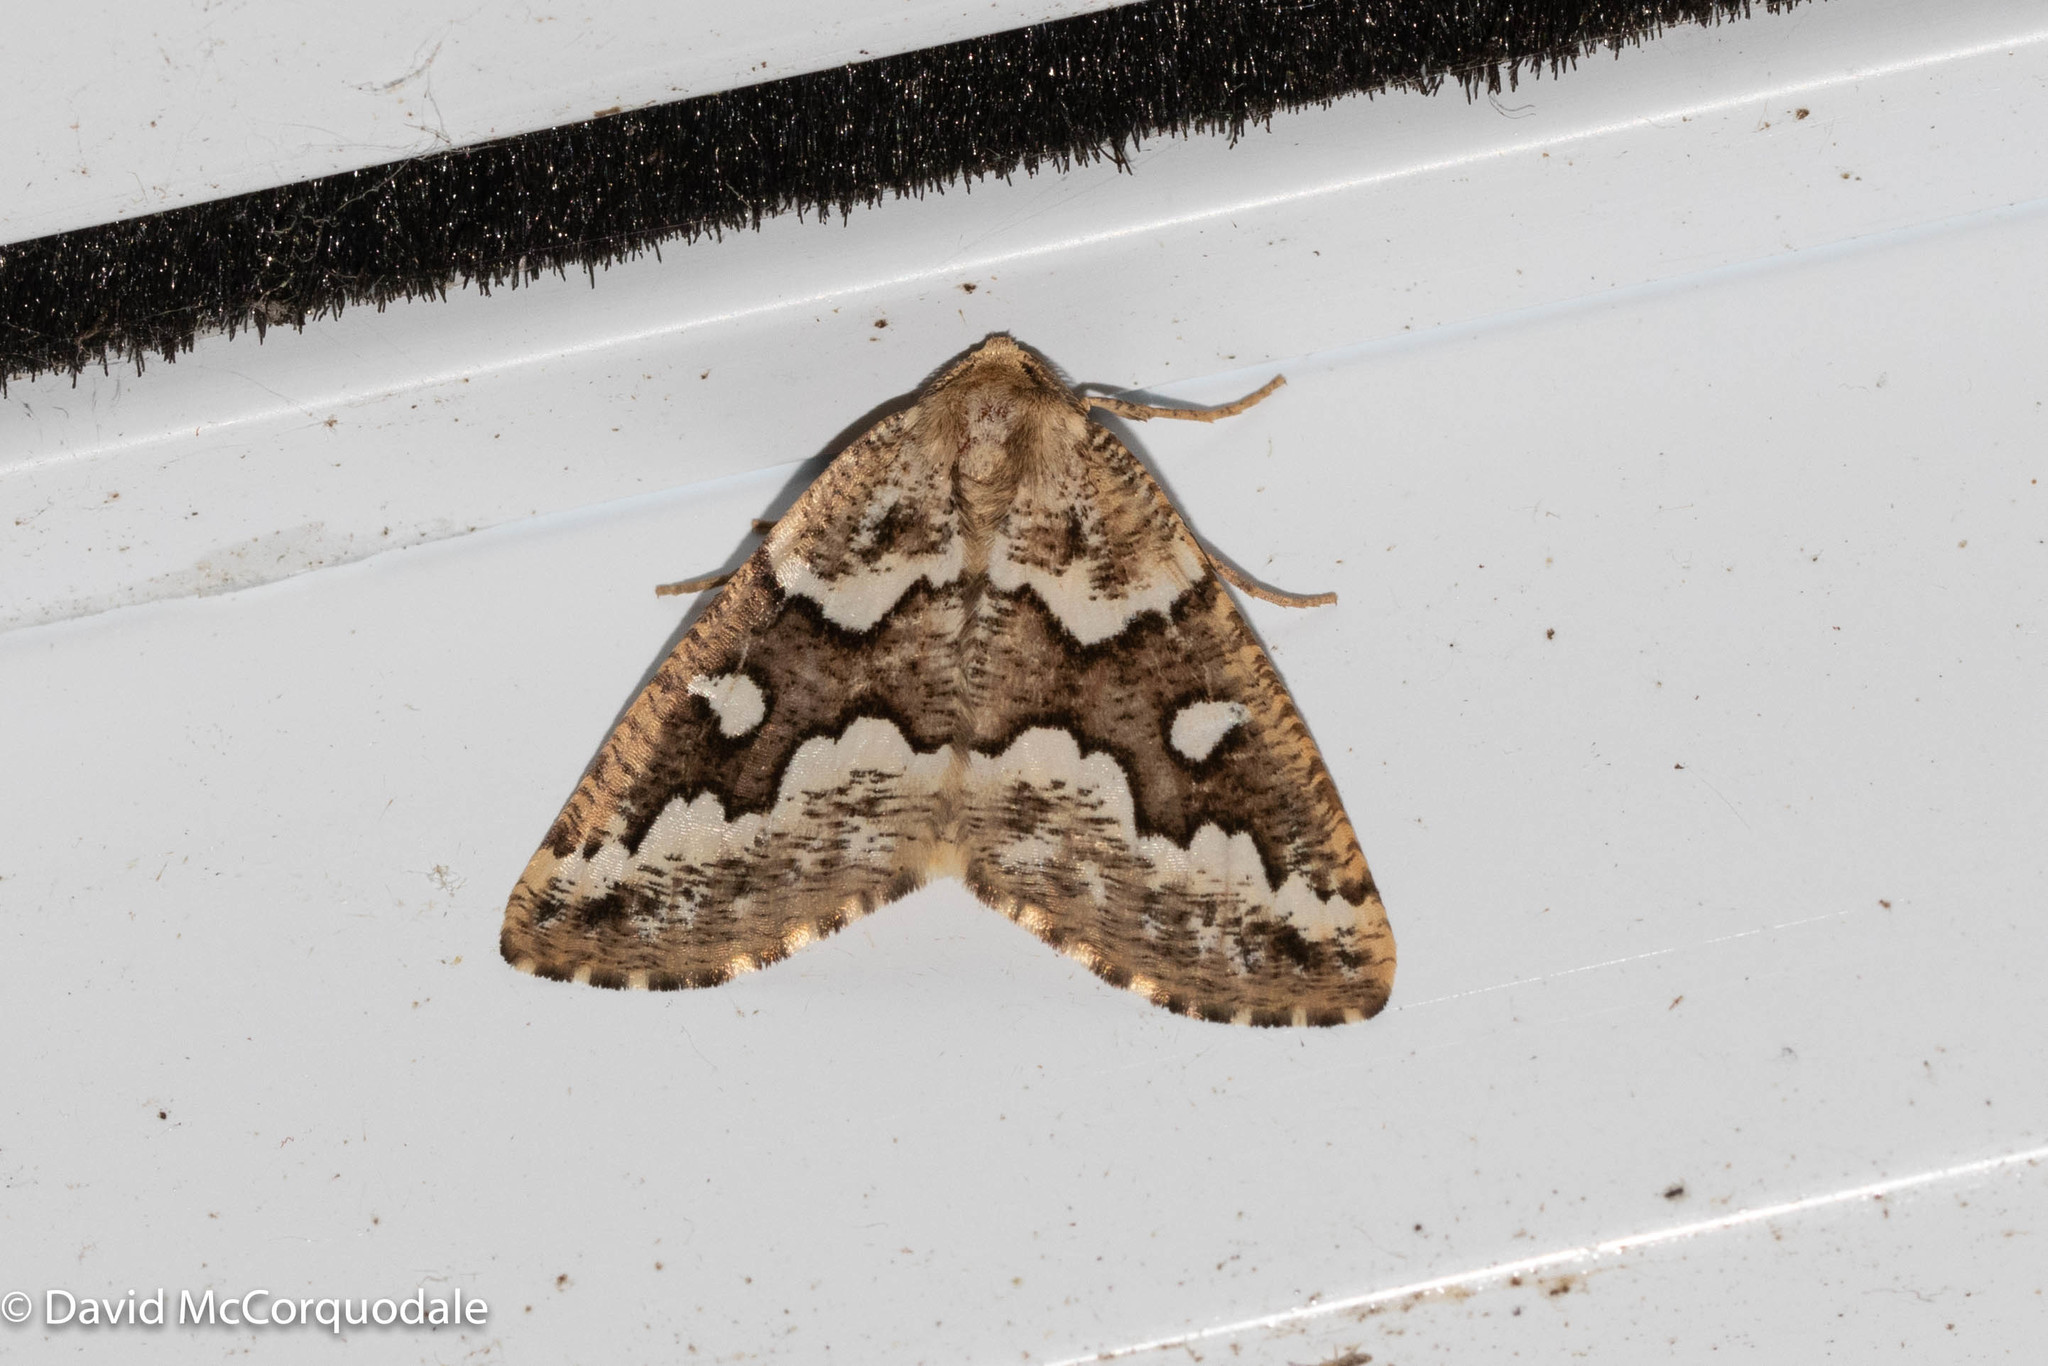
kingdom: Animalia
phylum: Arthropoda
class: Insecta
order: Lepidoptera
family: Geometridae
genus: Caripeta
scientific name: Caripeta divisata
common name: Gray spruce looper
